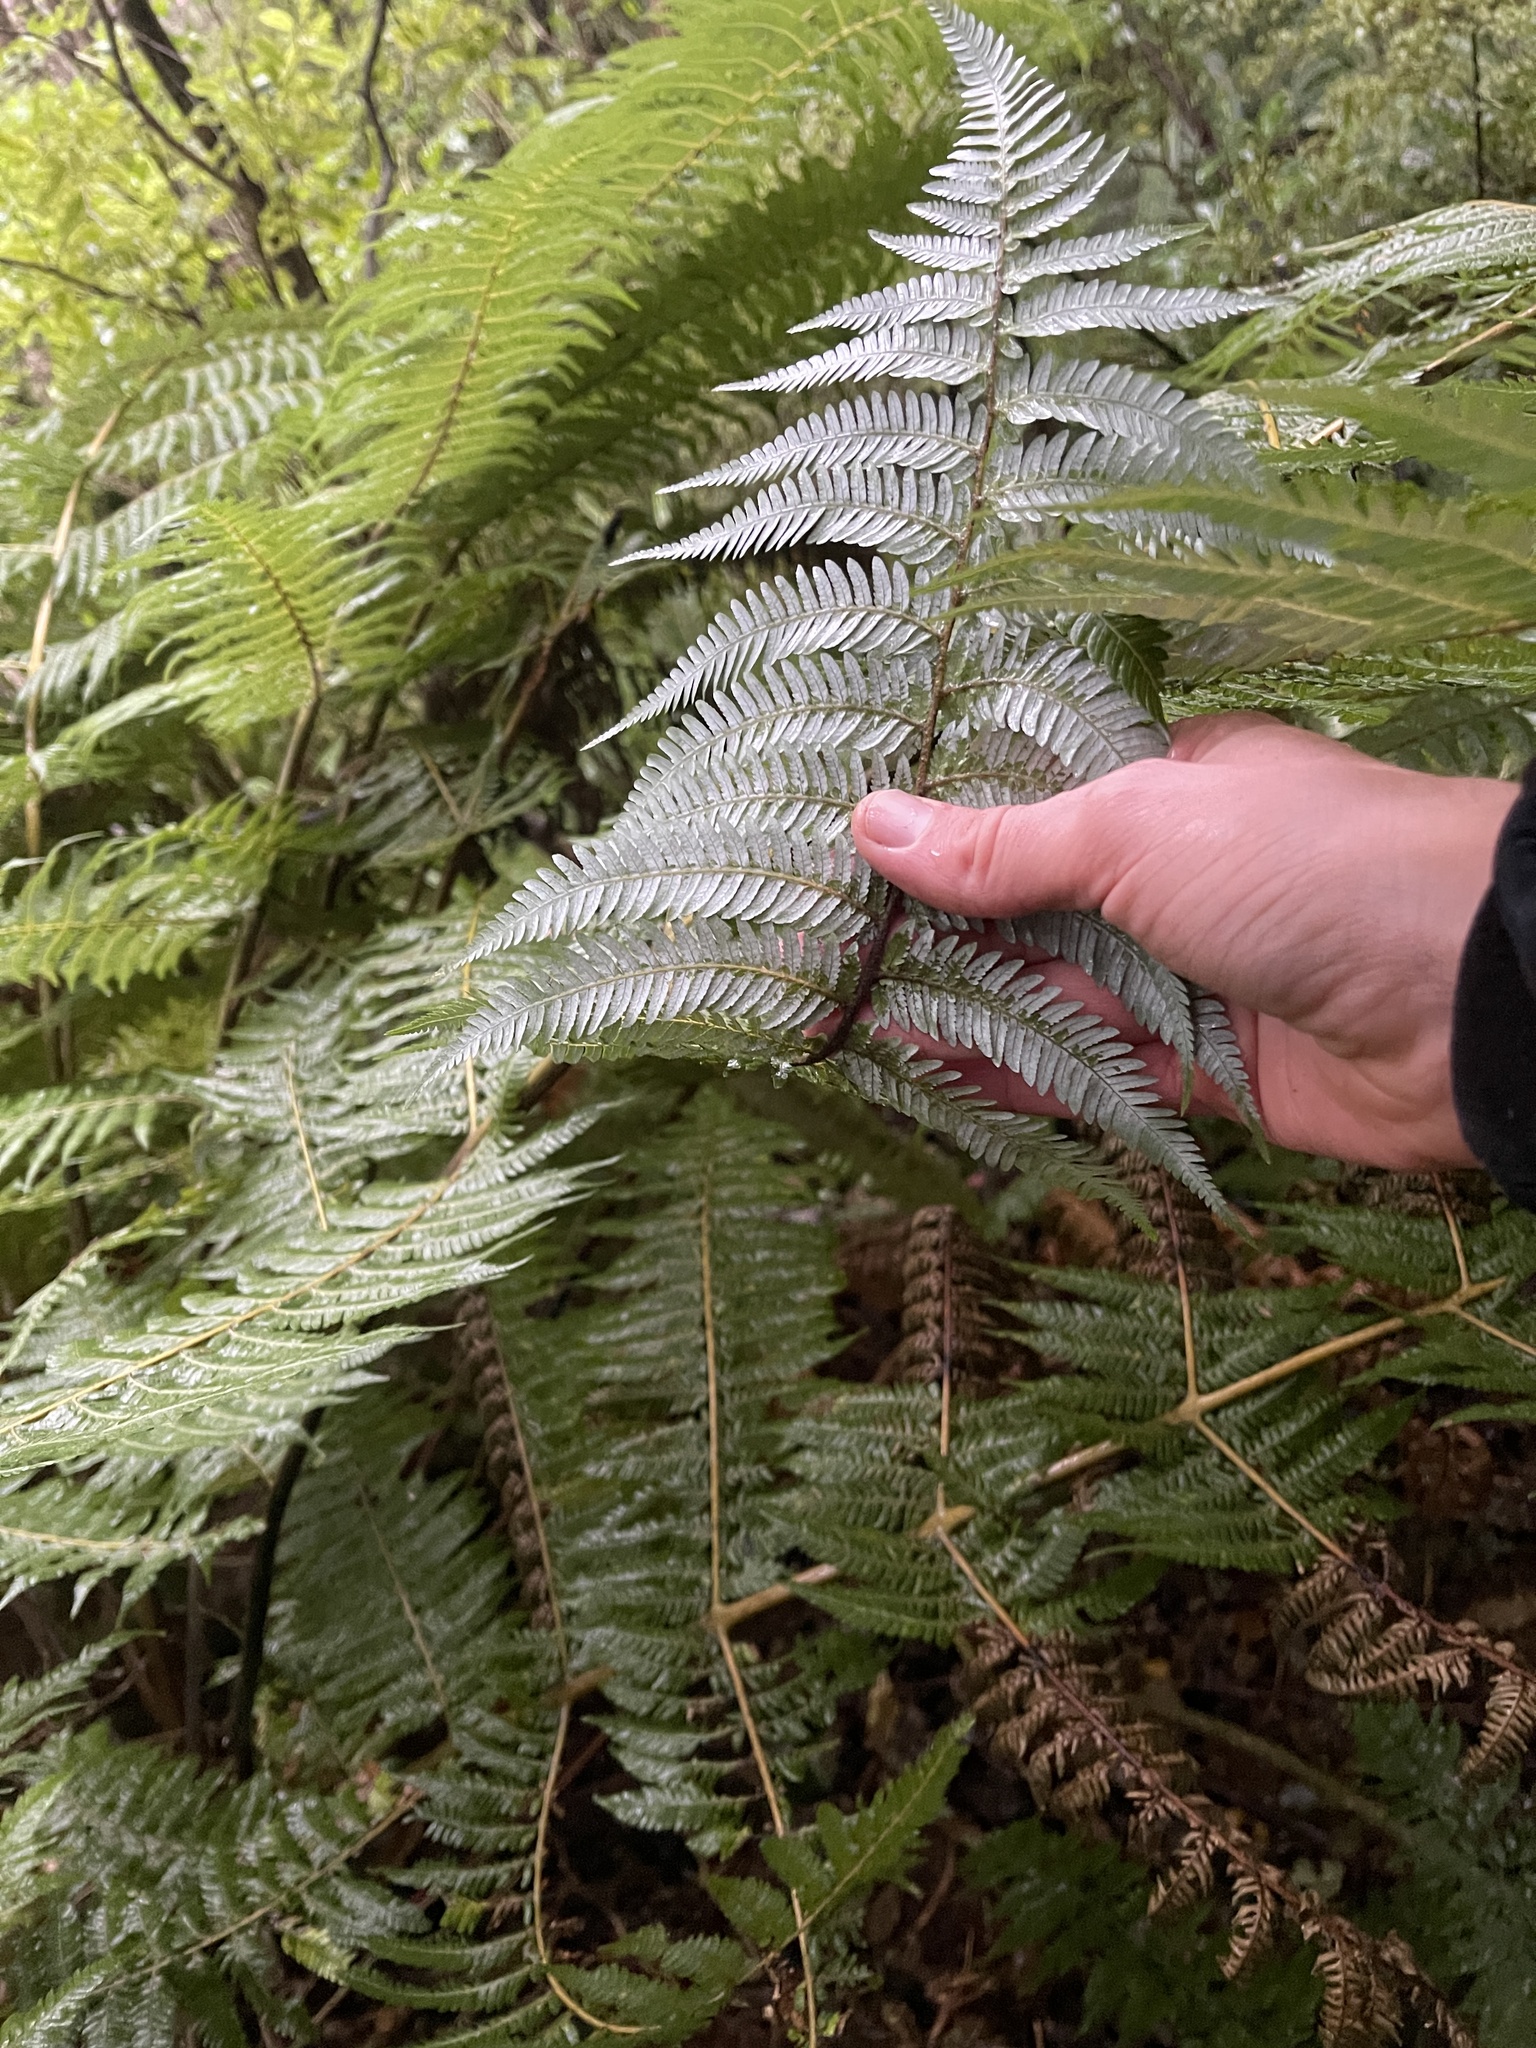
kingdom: Plantae
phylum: Tracheophyta
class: Polypodiopsida
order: Cyatheales
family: Cyatheaceae
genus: Alsophila
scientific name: Alsophila dealbata
